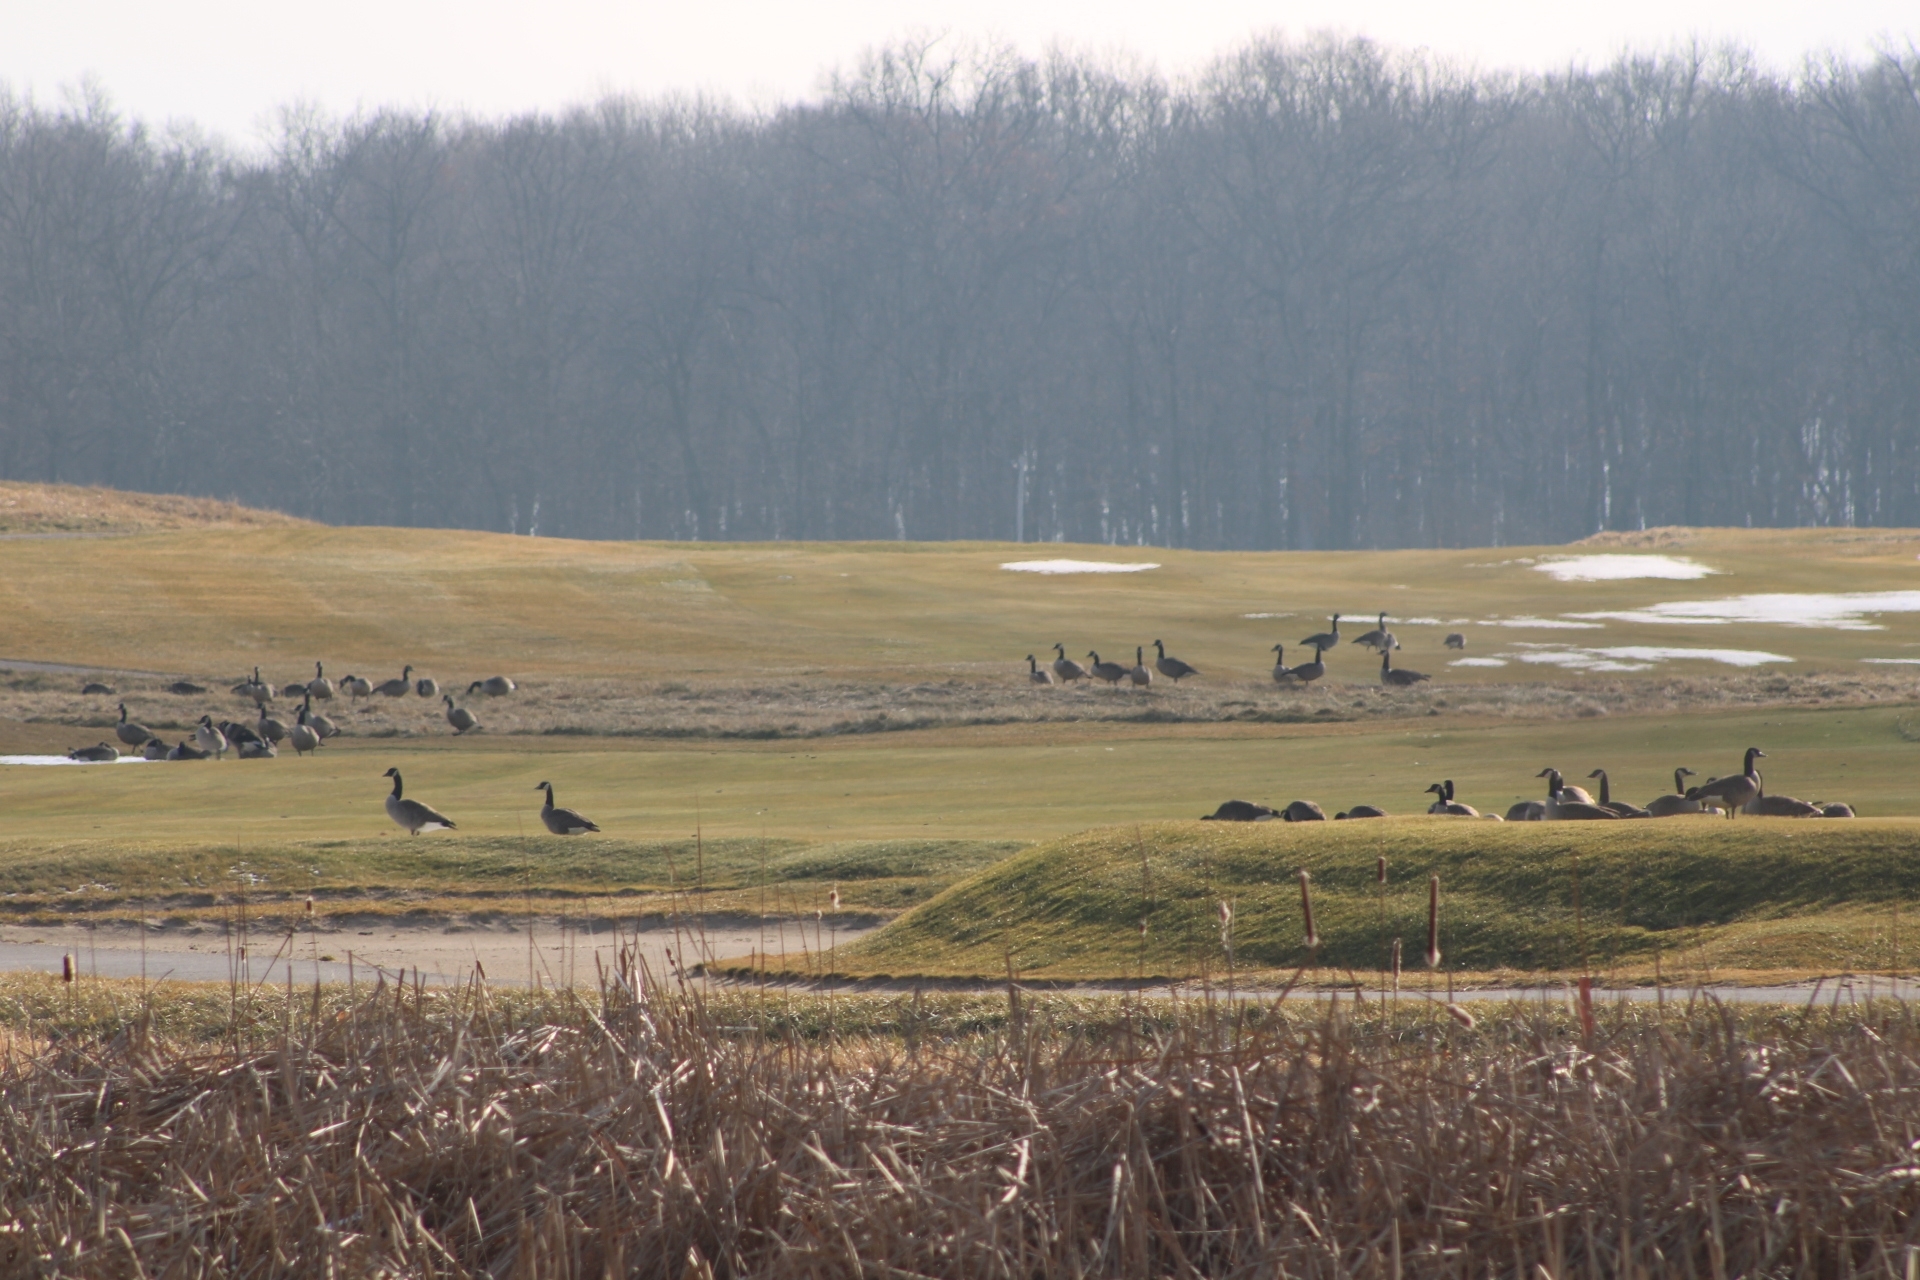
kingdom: Animalia
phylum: Chordata
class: Aves
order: Anseriformes
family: Anatidae
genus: Branta
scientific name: Branta canadensis
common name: Canada goose
